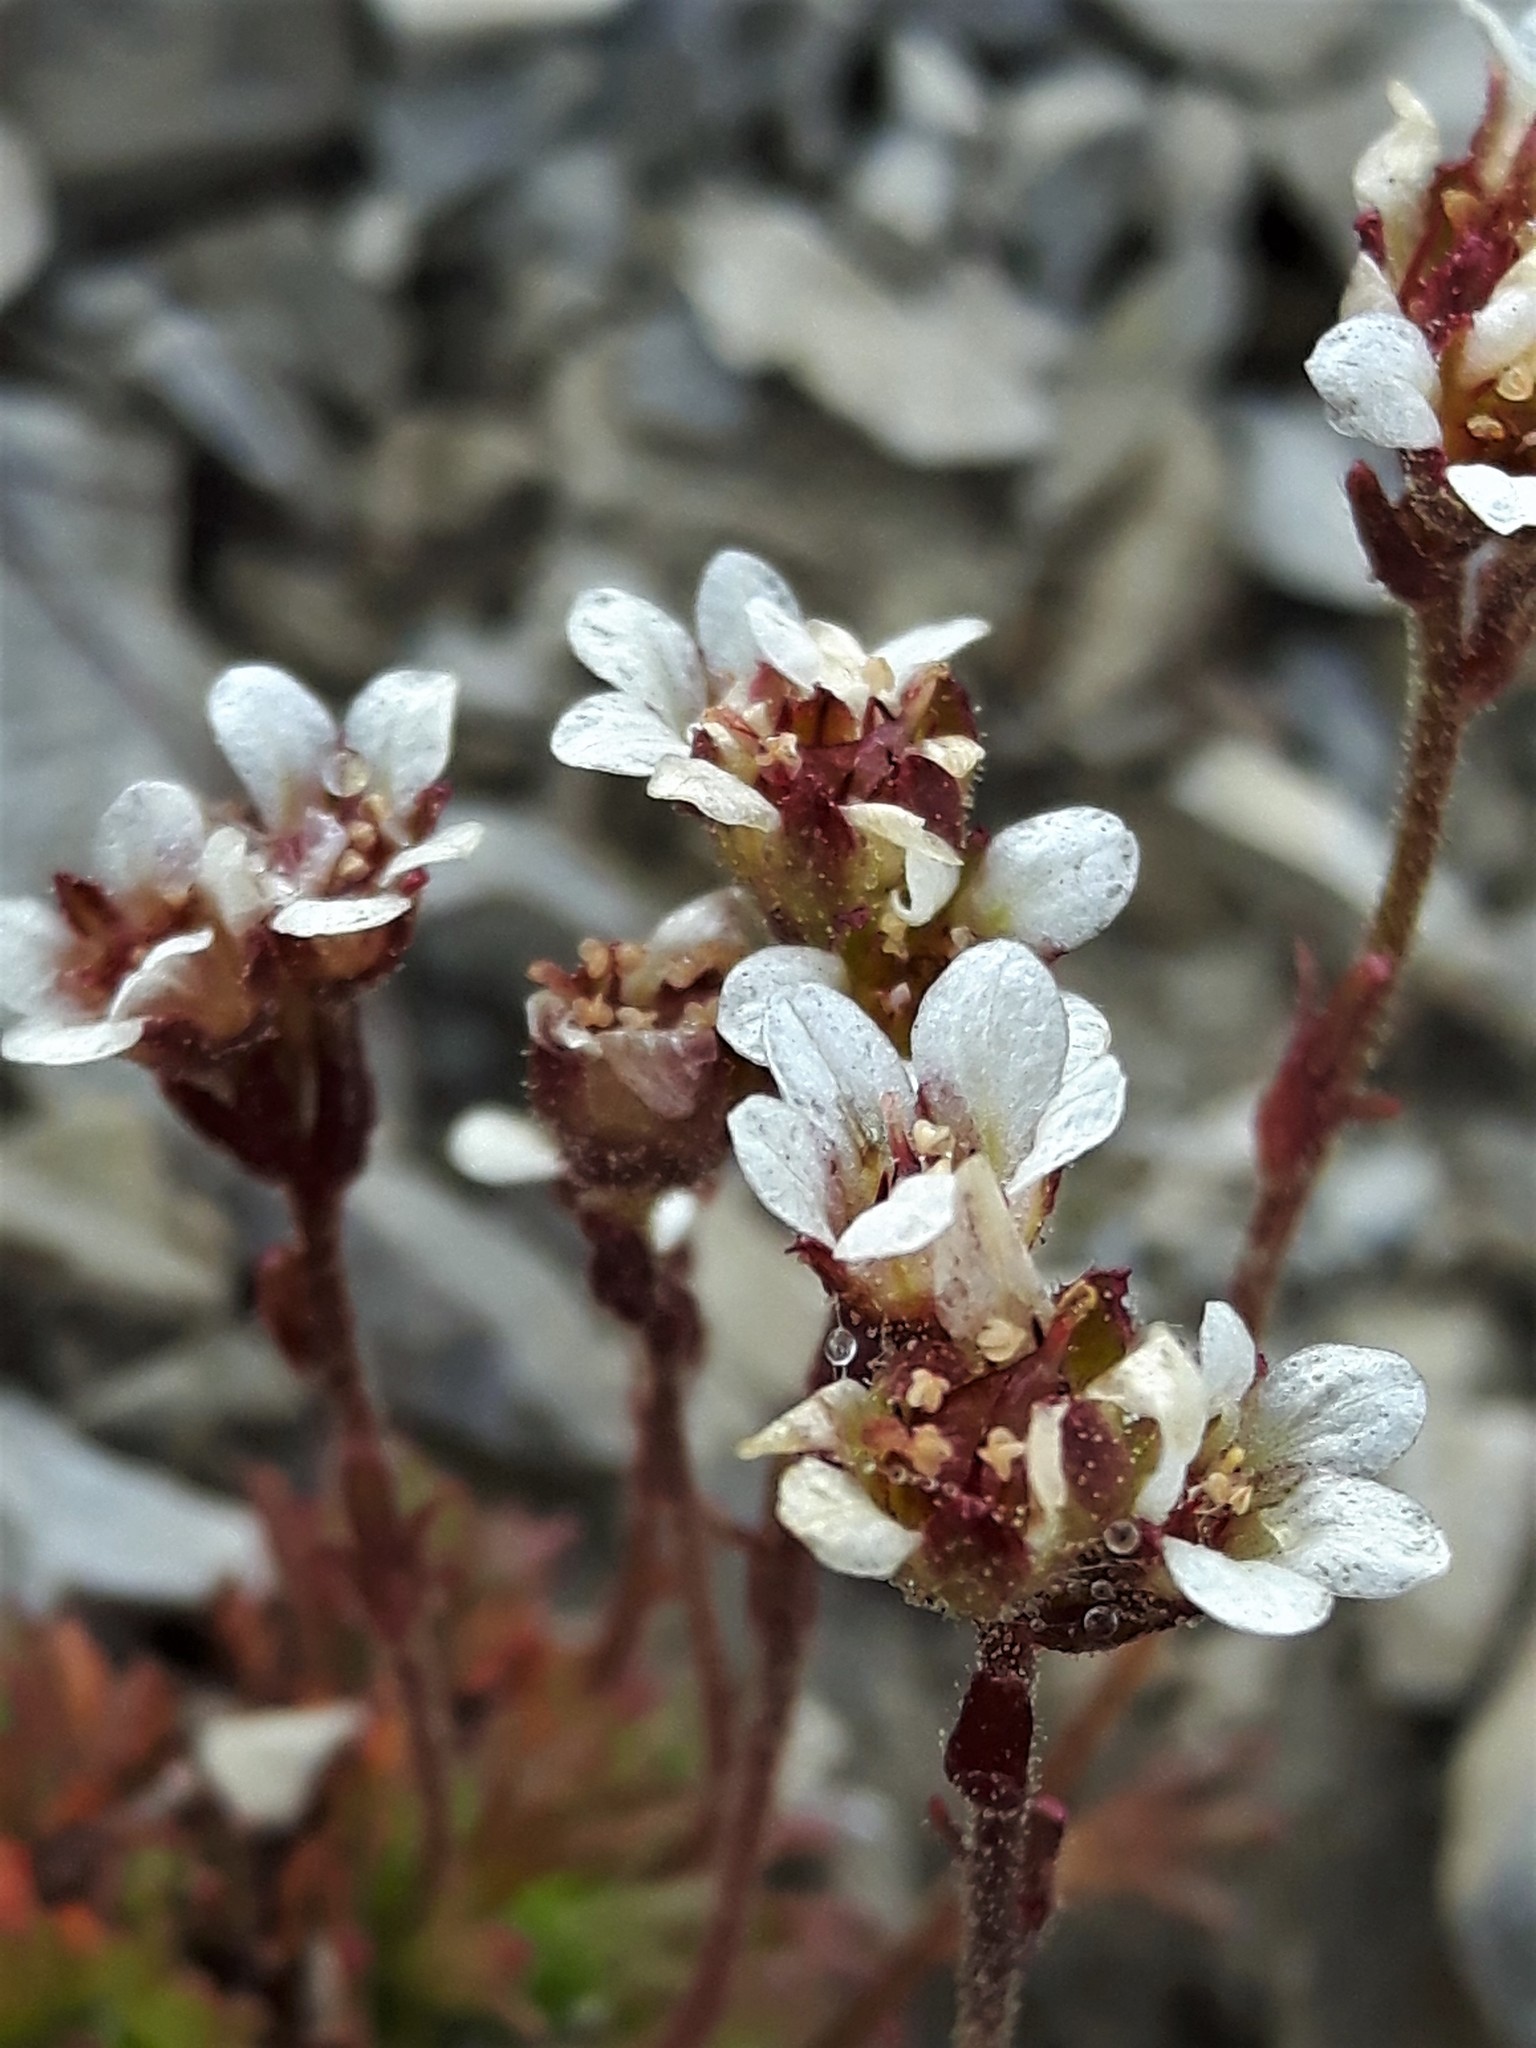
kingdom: Plantae
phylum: Tracheophyta
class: Magnoliopsida
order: Saxifragales
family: Saxifragaceae
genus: Saxifraga
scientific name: Saxifraga cespitosa
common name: Tufted saxifrage
